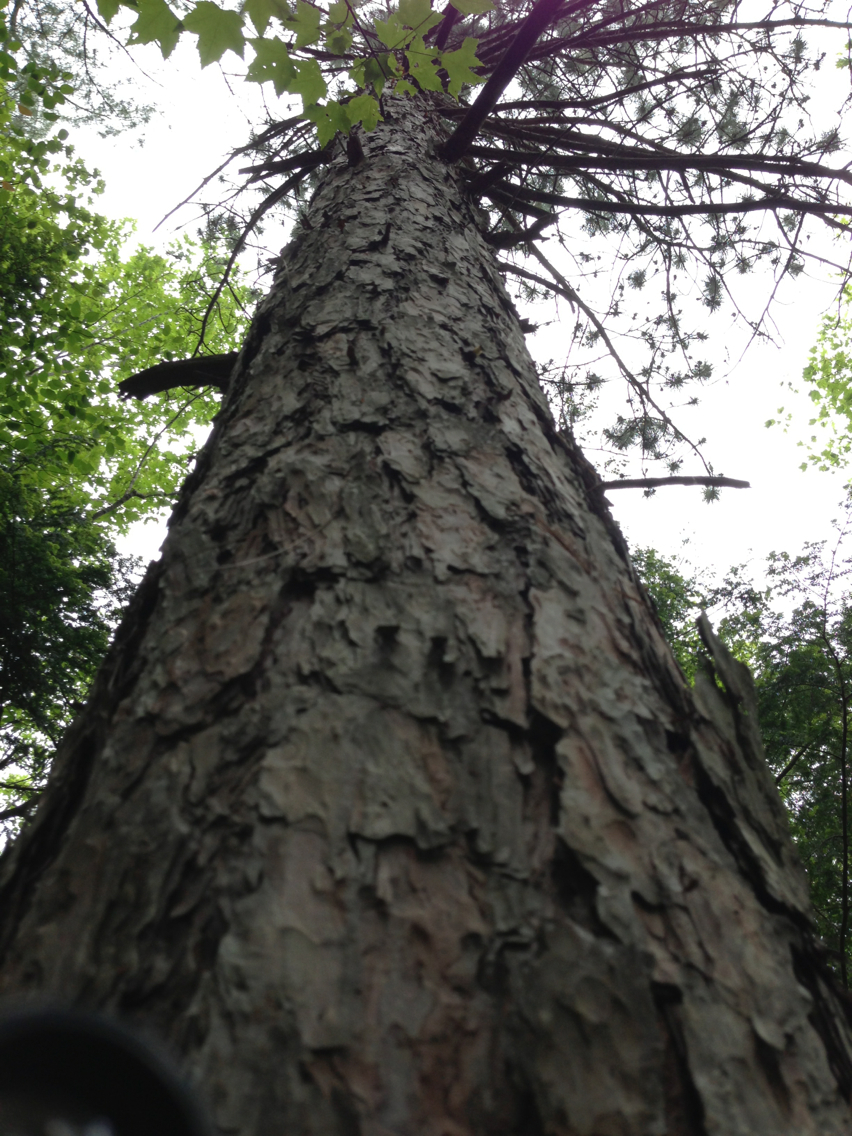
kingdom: Plantae
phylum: Tracheophyta
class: Pinopsida
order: Pinales
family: Pinaceae
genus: Pinus
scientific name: Pinus resinosa
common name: Norway pine
